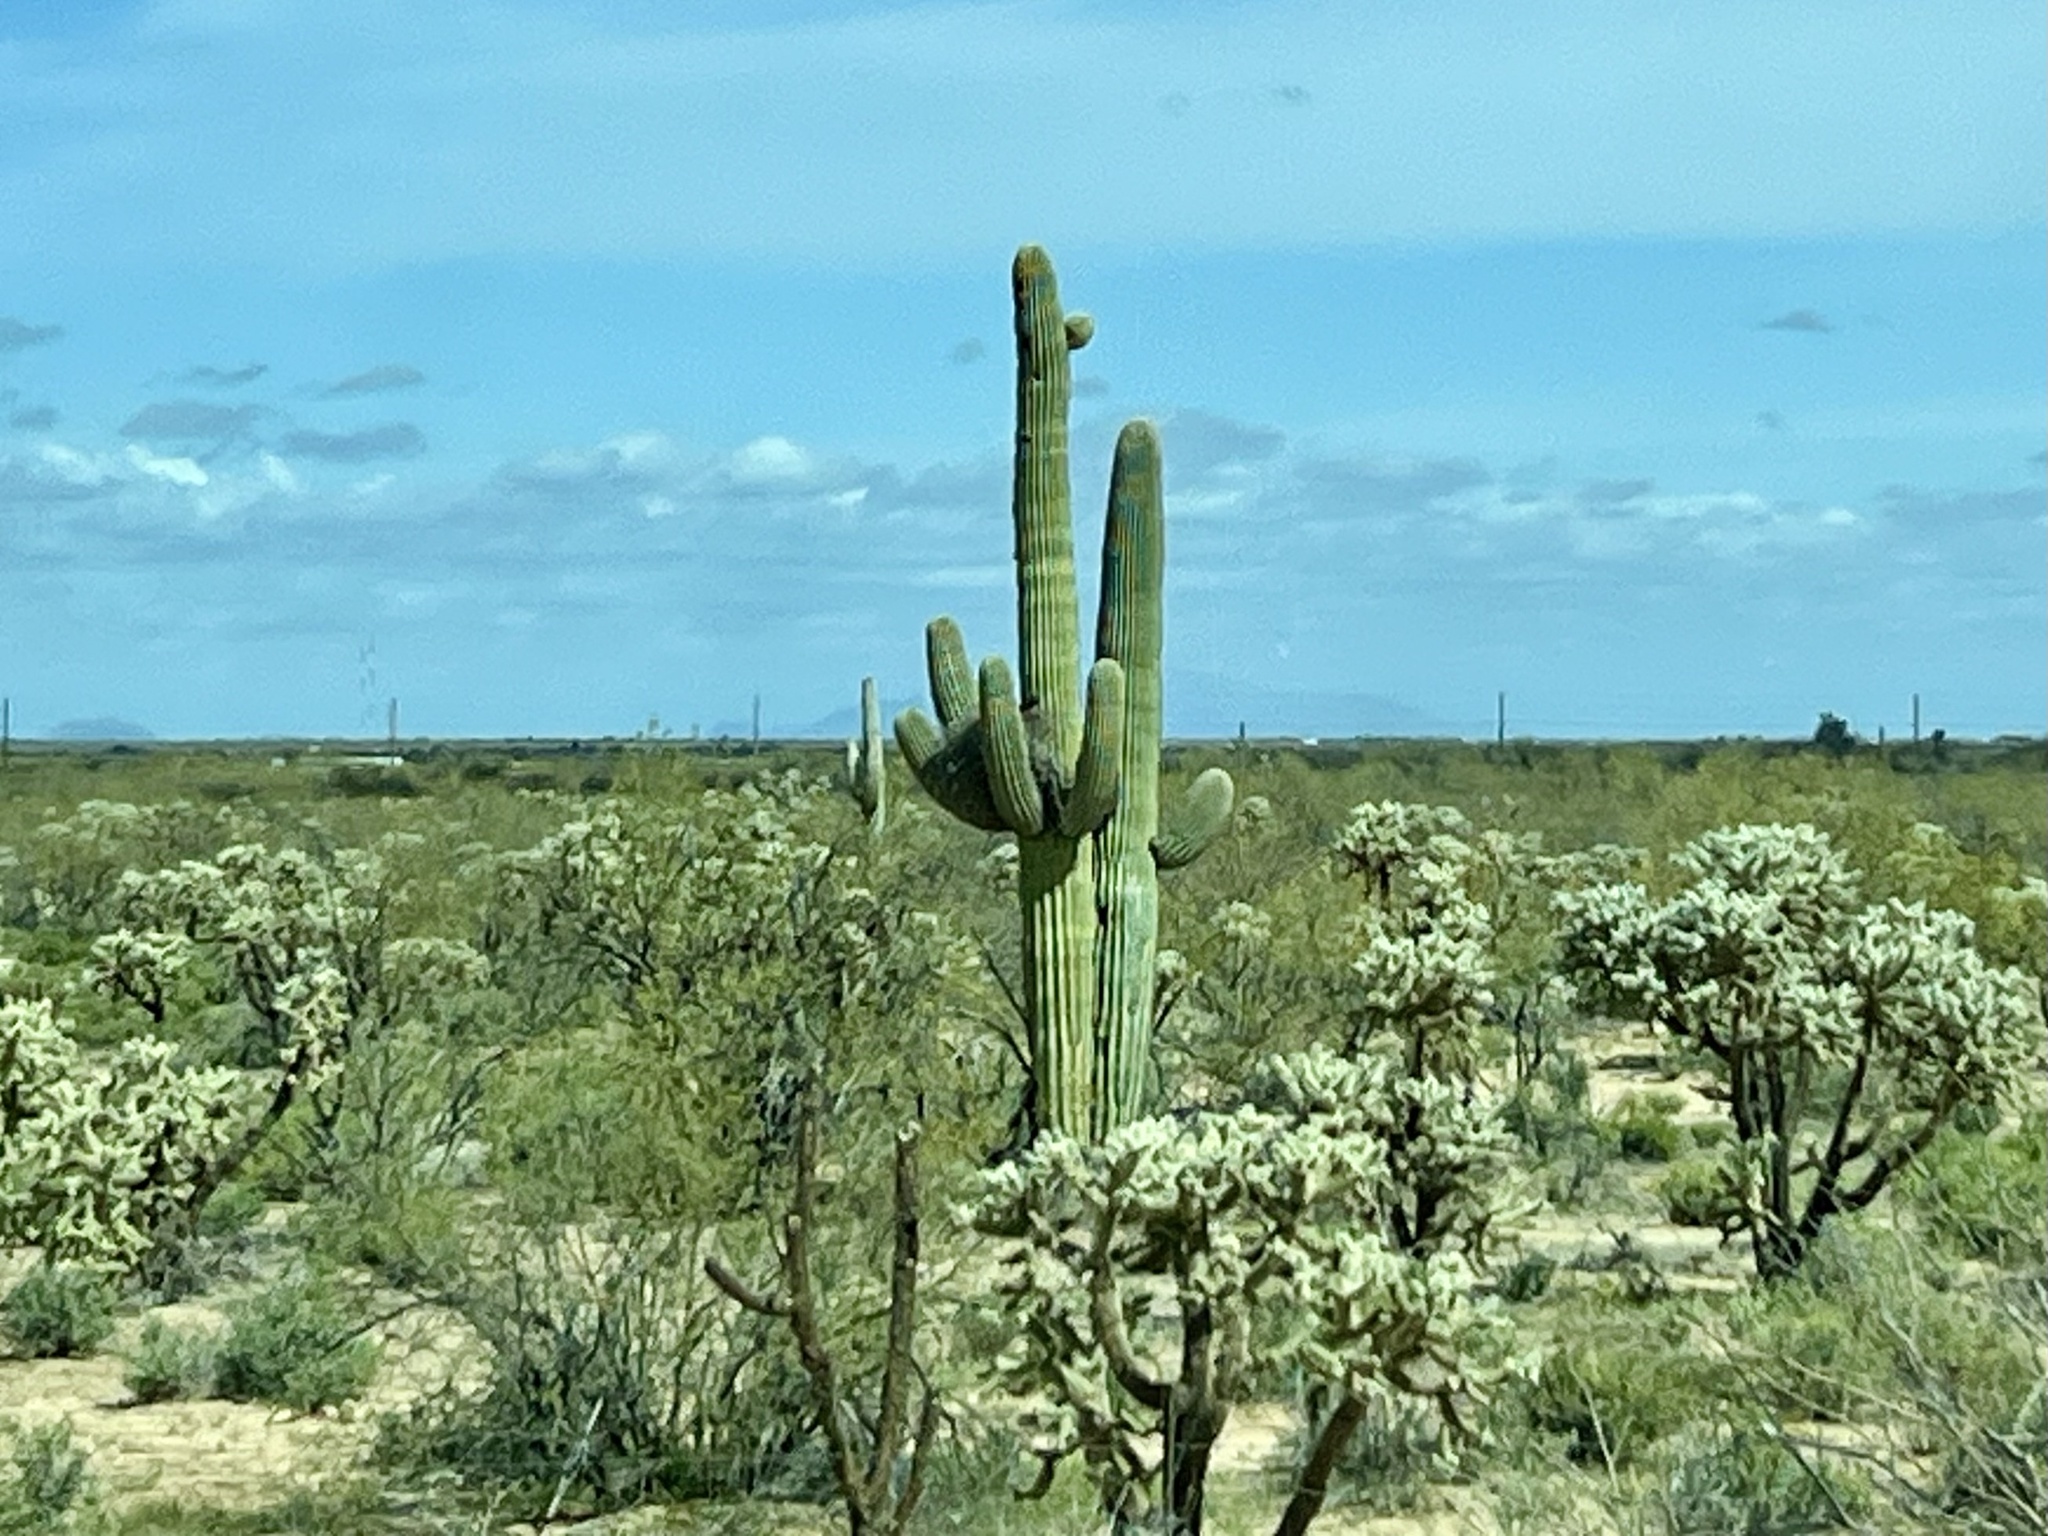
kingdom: Plantae
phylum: Tracheophyta
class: Magnoliopsida
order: Caryophyllales
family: Cactaceae
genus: Carnegiea
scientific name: Carnegiea gigantea
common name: Saguaro
